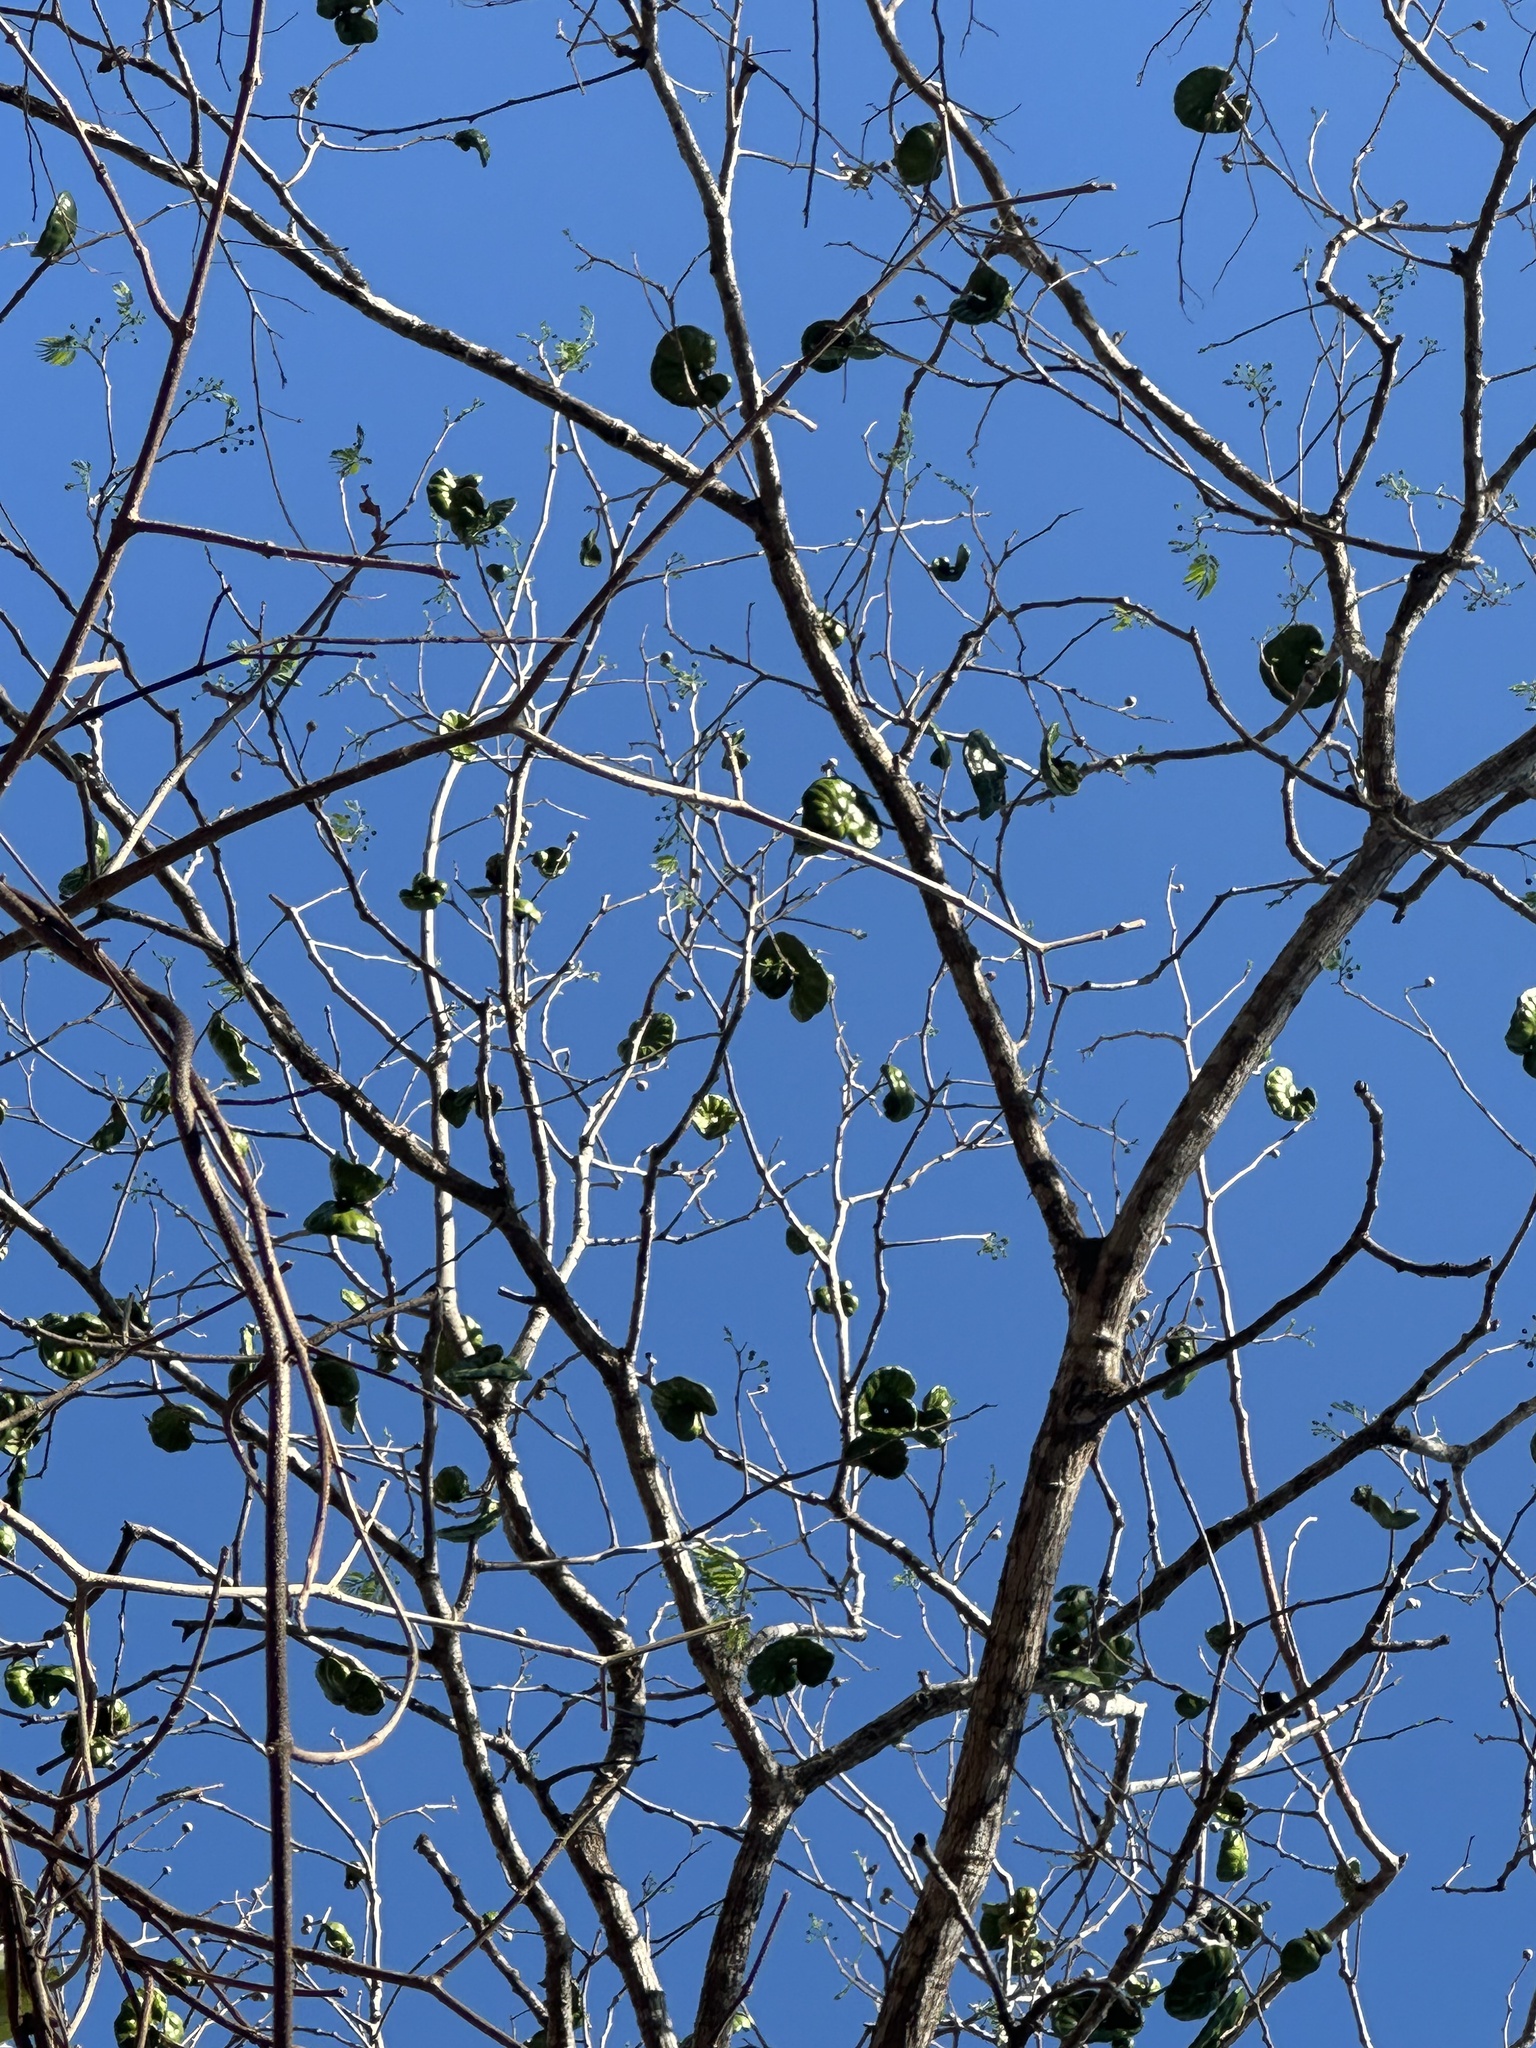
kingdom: Plantae
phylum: Tracheophyta
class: Magnoliopsida
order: Fabales
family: Fabaceae
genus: Enterolobium
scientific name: Enterolobium cyclocarpum
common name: Ear tree
